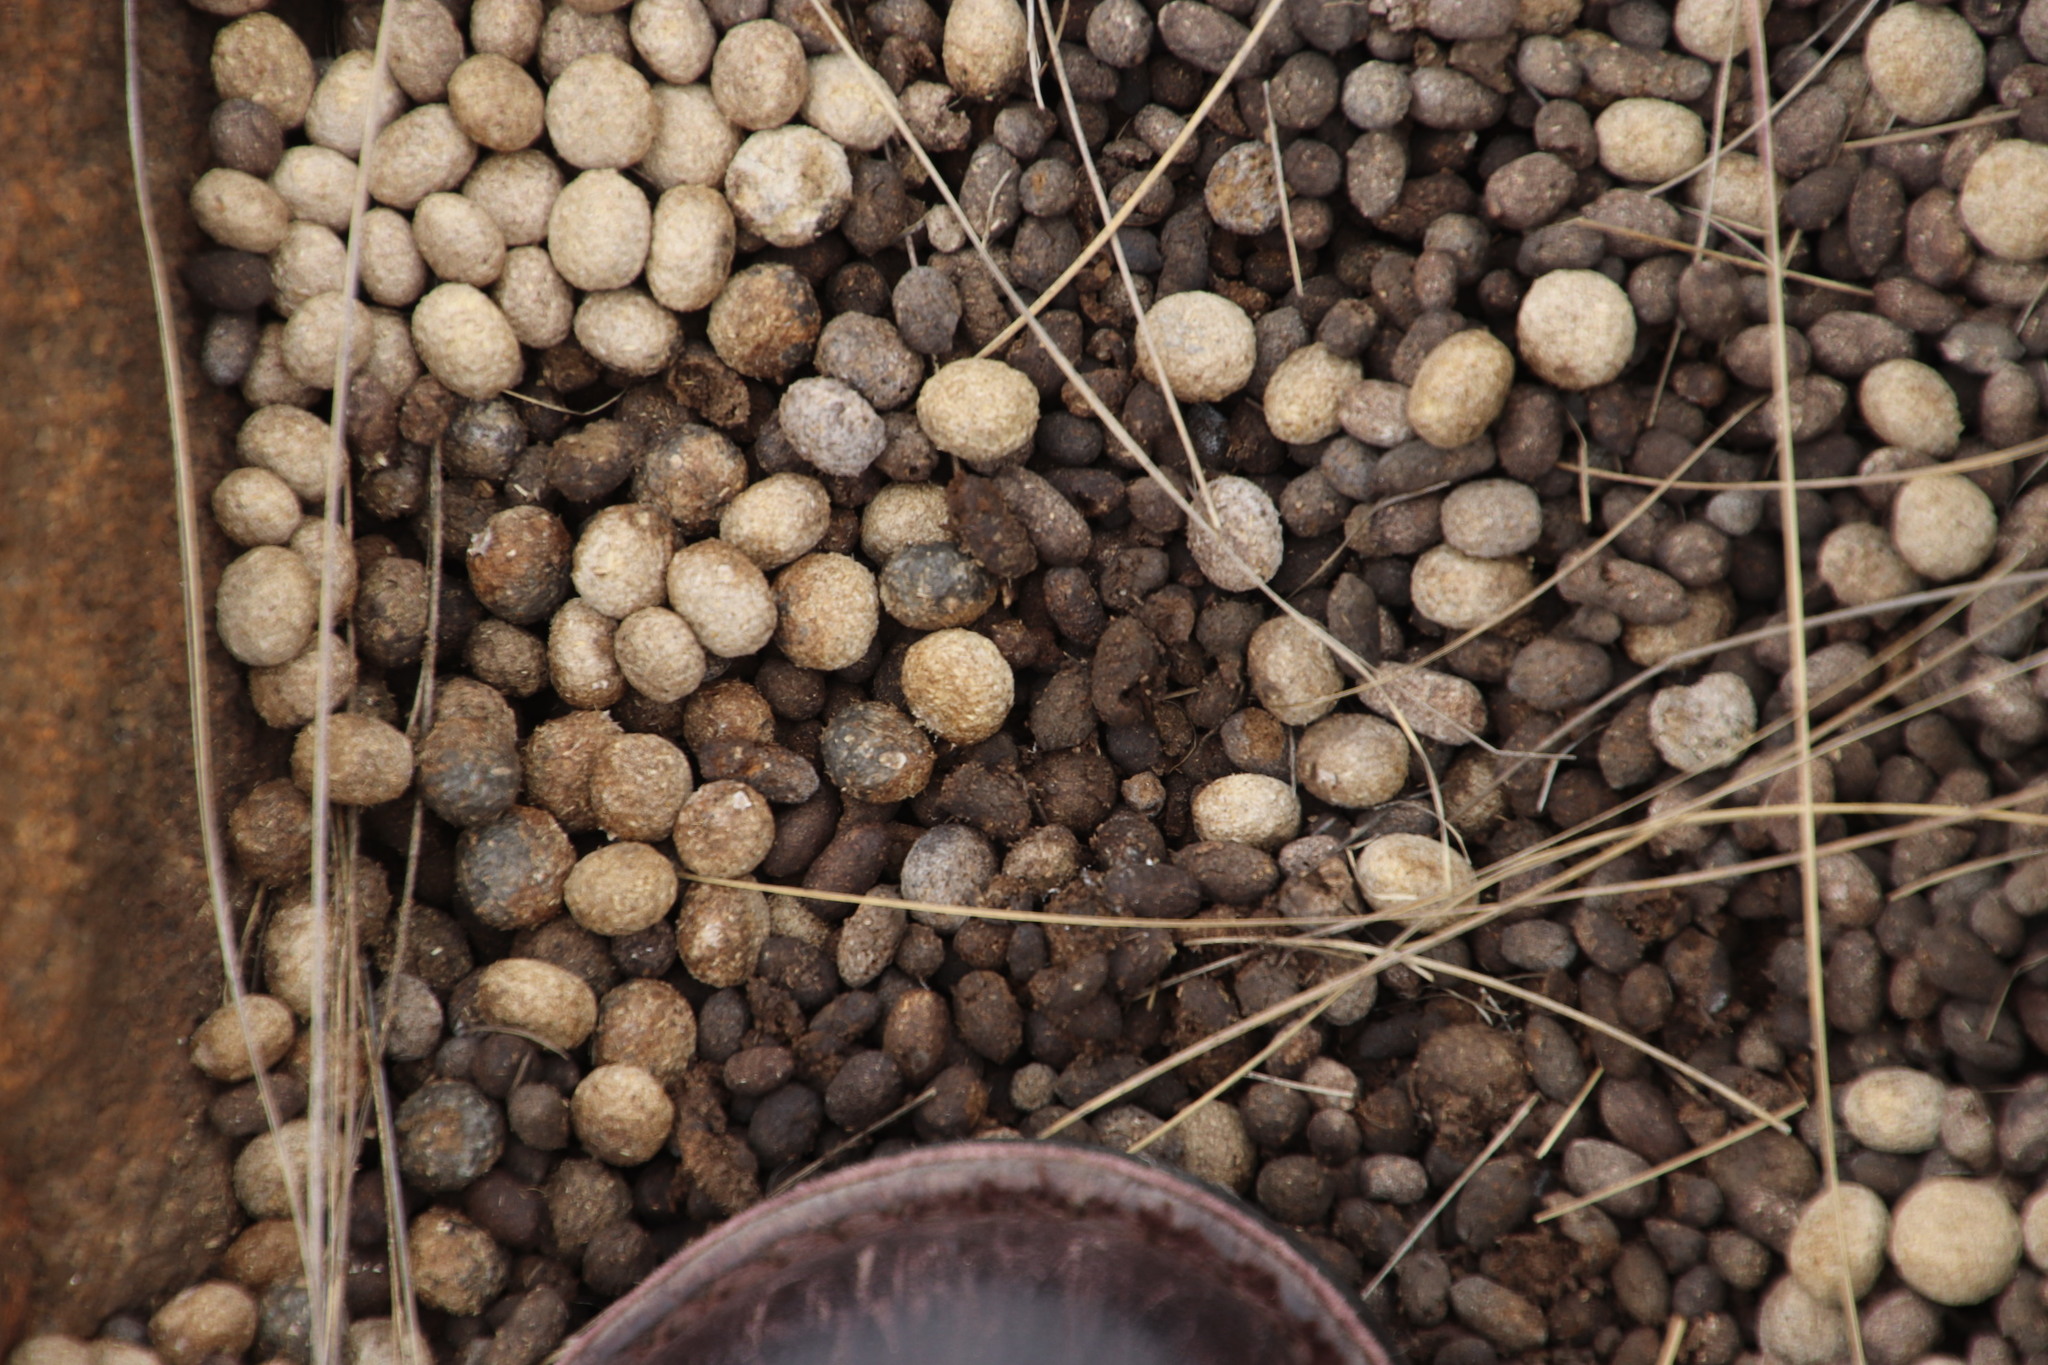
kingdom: Animalia
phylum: Chordata
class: Mammalia
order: Lagomorpha
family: Leporidae
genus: Pronolagus
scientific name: Pronolagus randensis
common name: Jameson's red rock hare
